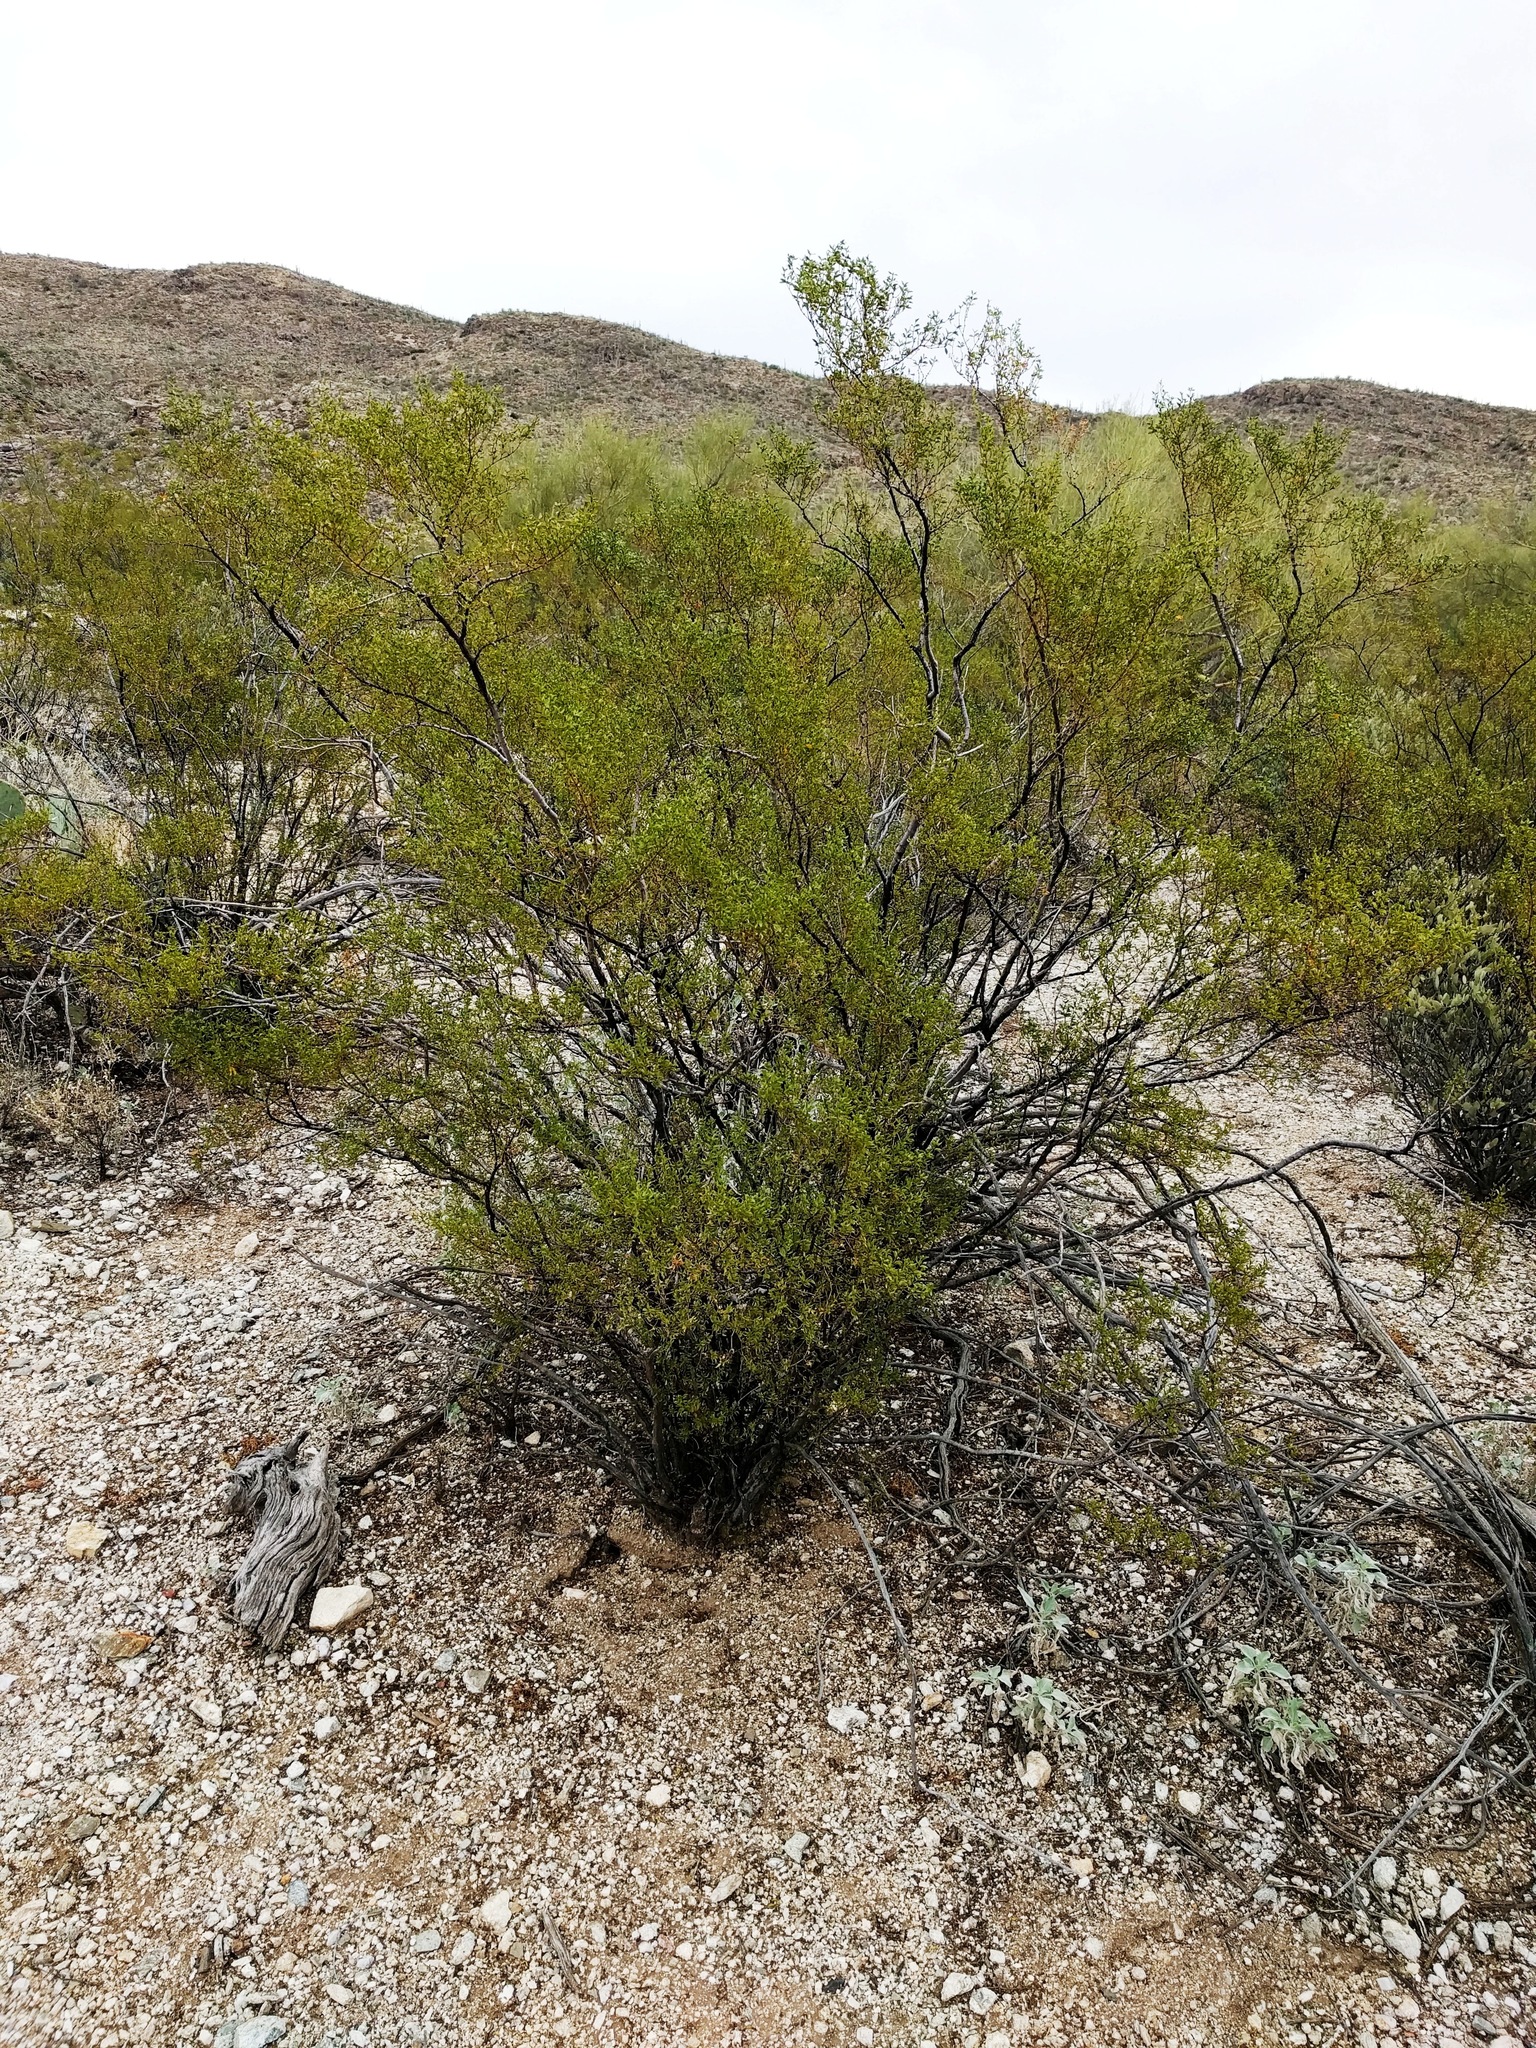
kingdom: Plantae
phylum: Tracheophyta
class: Magnoliopsida
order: Zygophyllales
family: Zygophyllaceae
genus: Larrea
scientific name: Larrea tridentata
